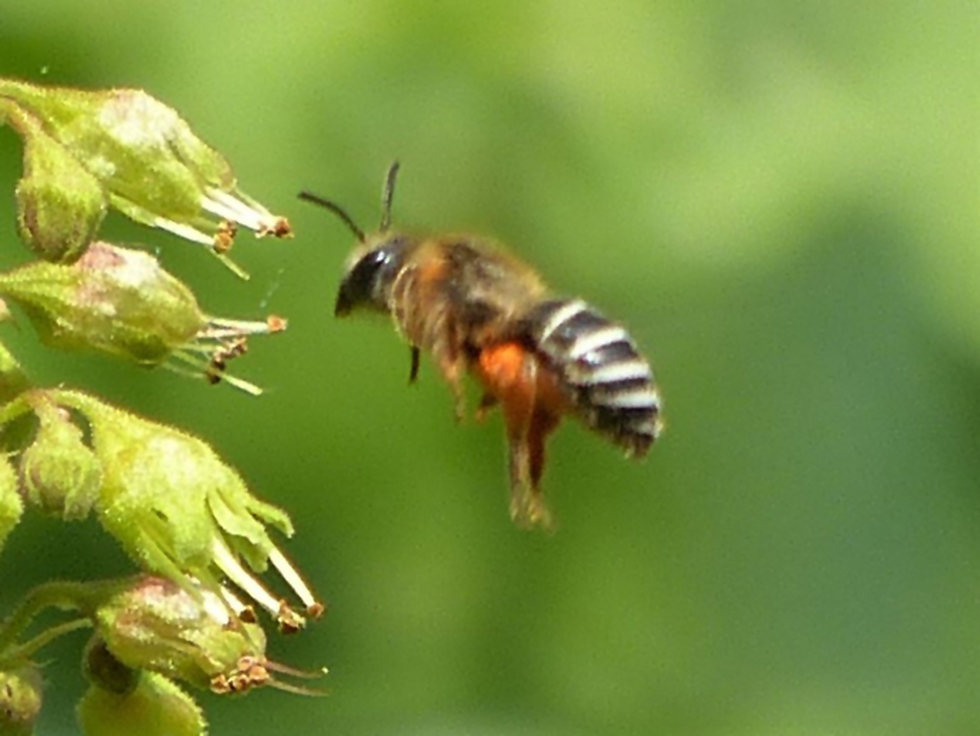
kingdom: Animalia
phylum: Arthropoda
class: Insecta
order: Hymenoptera
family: Colletidae
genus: Colletes
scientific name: Colletes aestivalis
